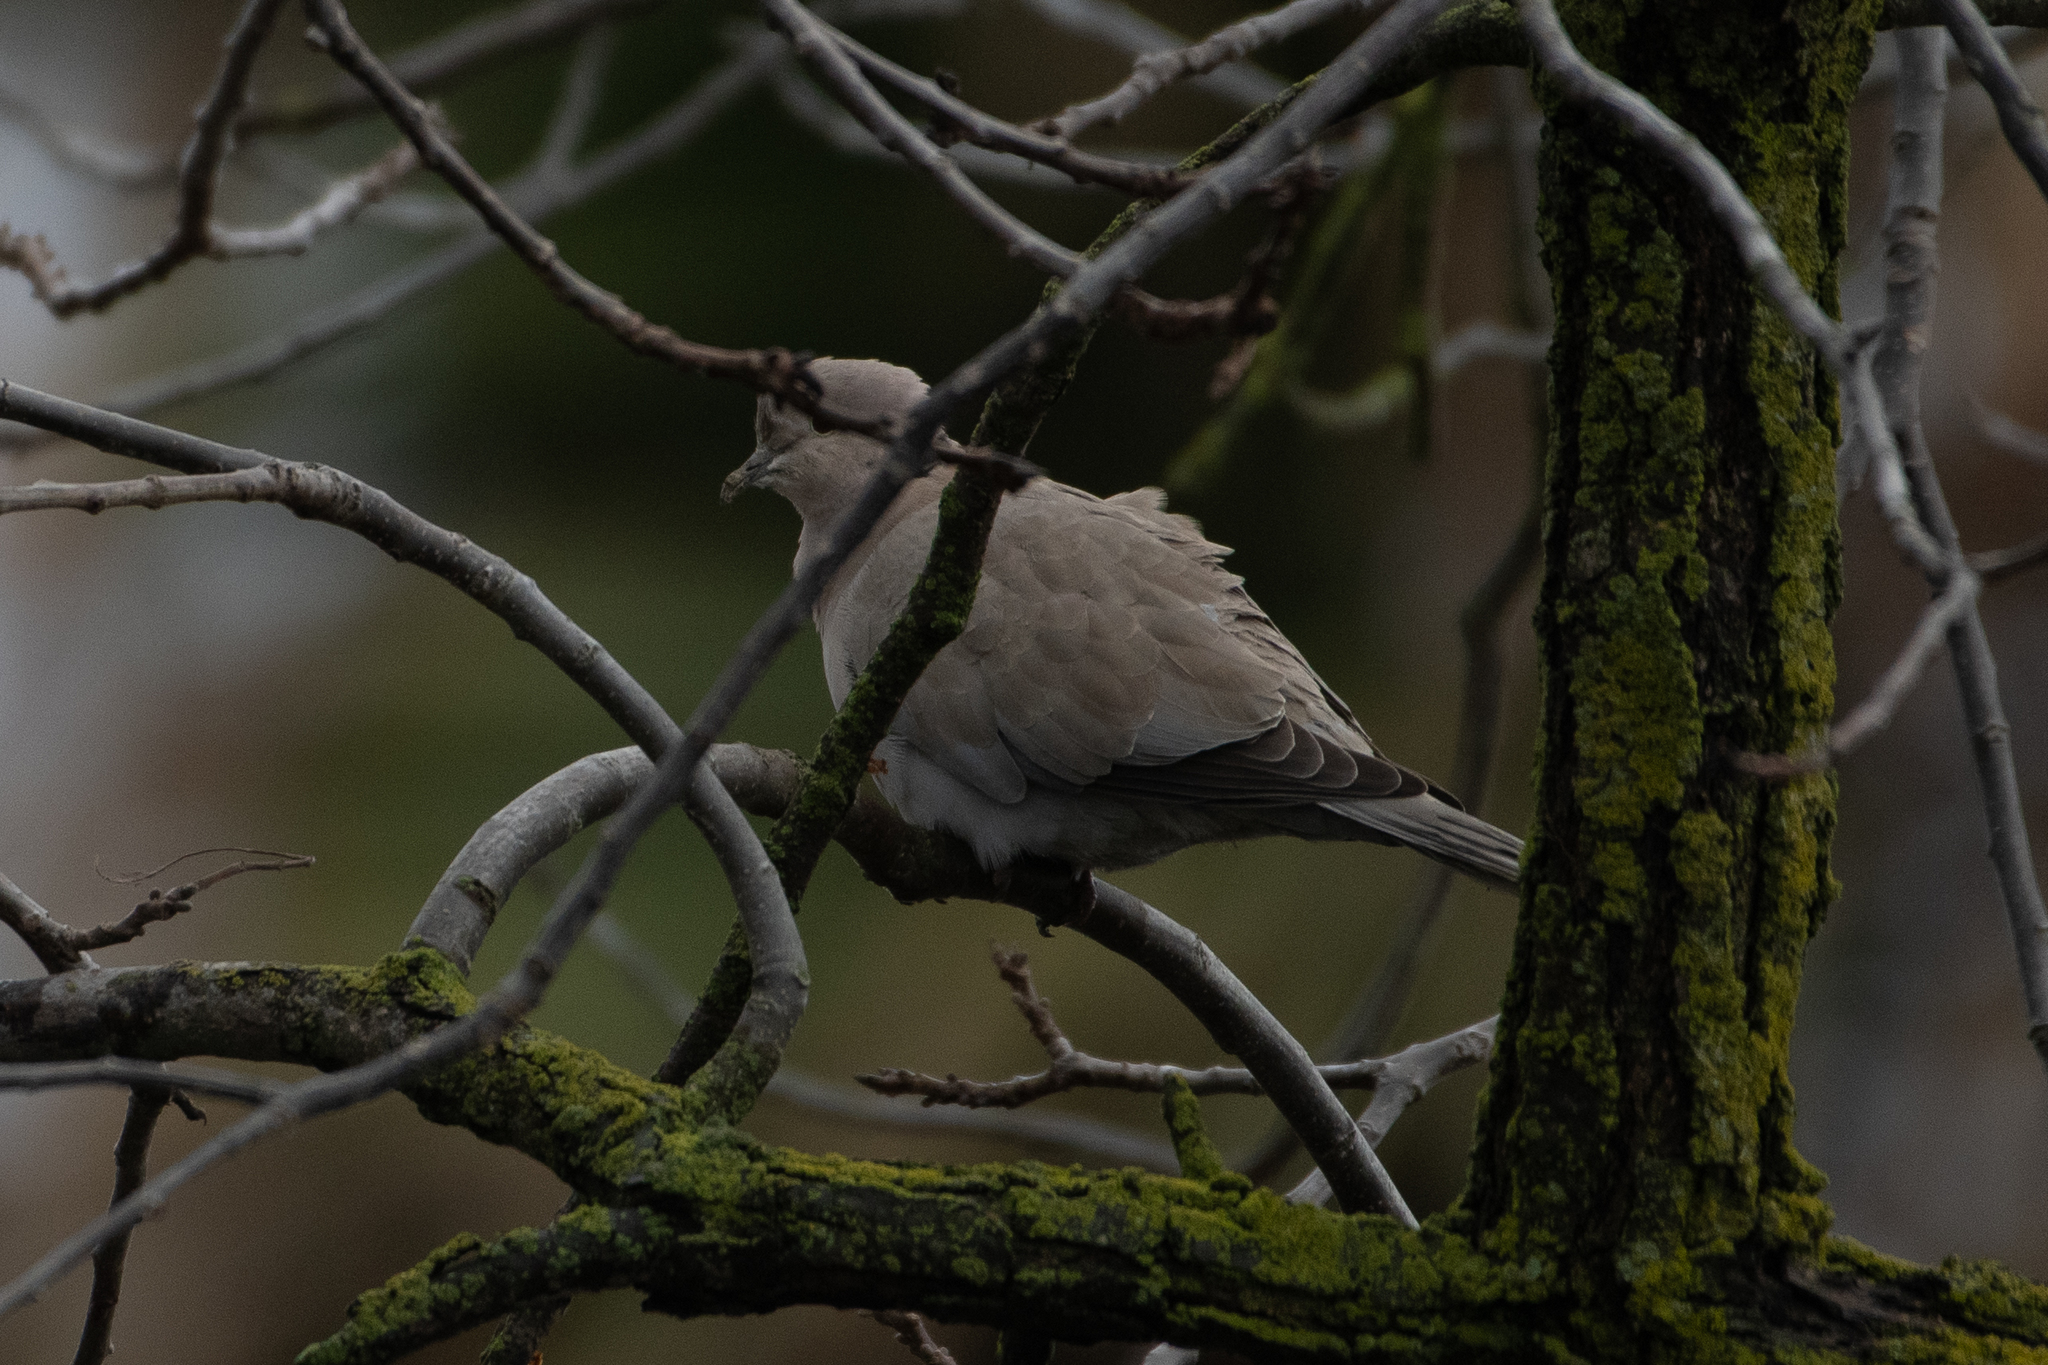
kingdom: Animalia
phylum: Chordata
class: Aves
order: Columbiformes
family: Columbidae
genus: Streptopelia
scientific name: Streptopelia decaocto
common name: Eurasian collared dove
